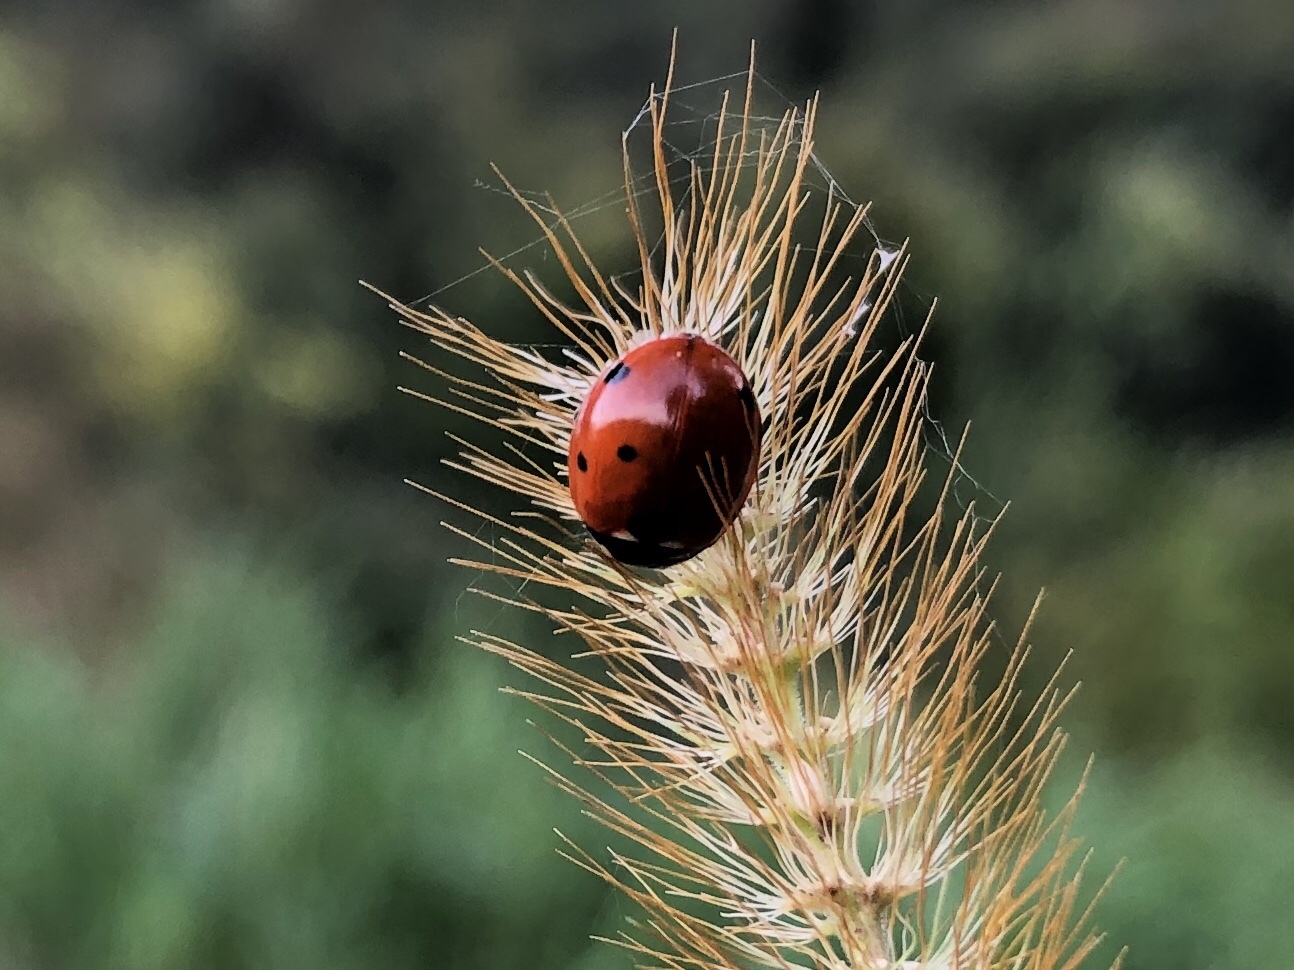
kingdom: Animalia
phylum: Arthropoda
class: Insecta
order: Coleoptera
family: Coccinellidae
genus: Coccinella
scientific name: Coccinella septempunctata
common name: Sevenspotted lady beetle
